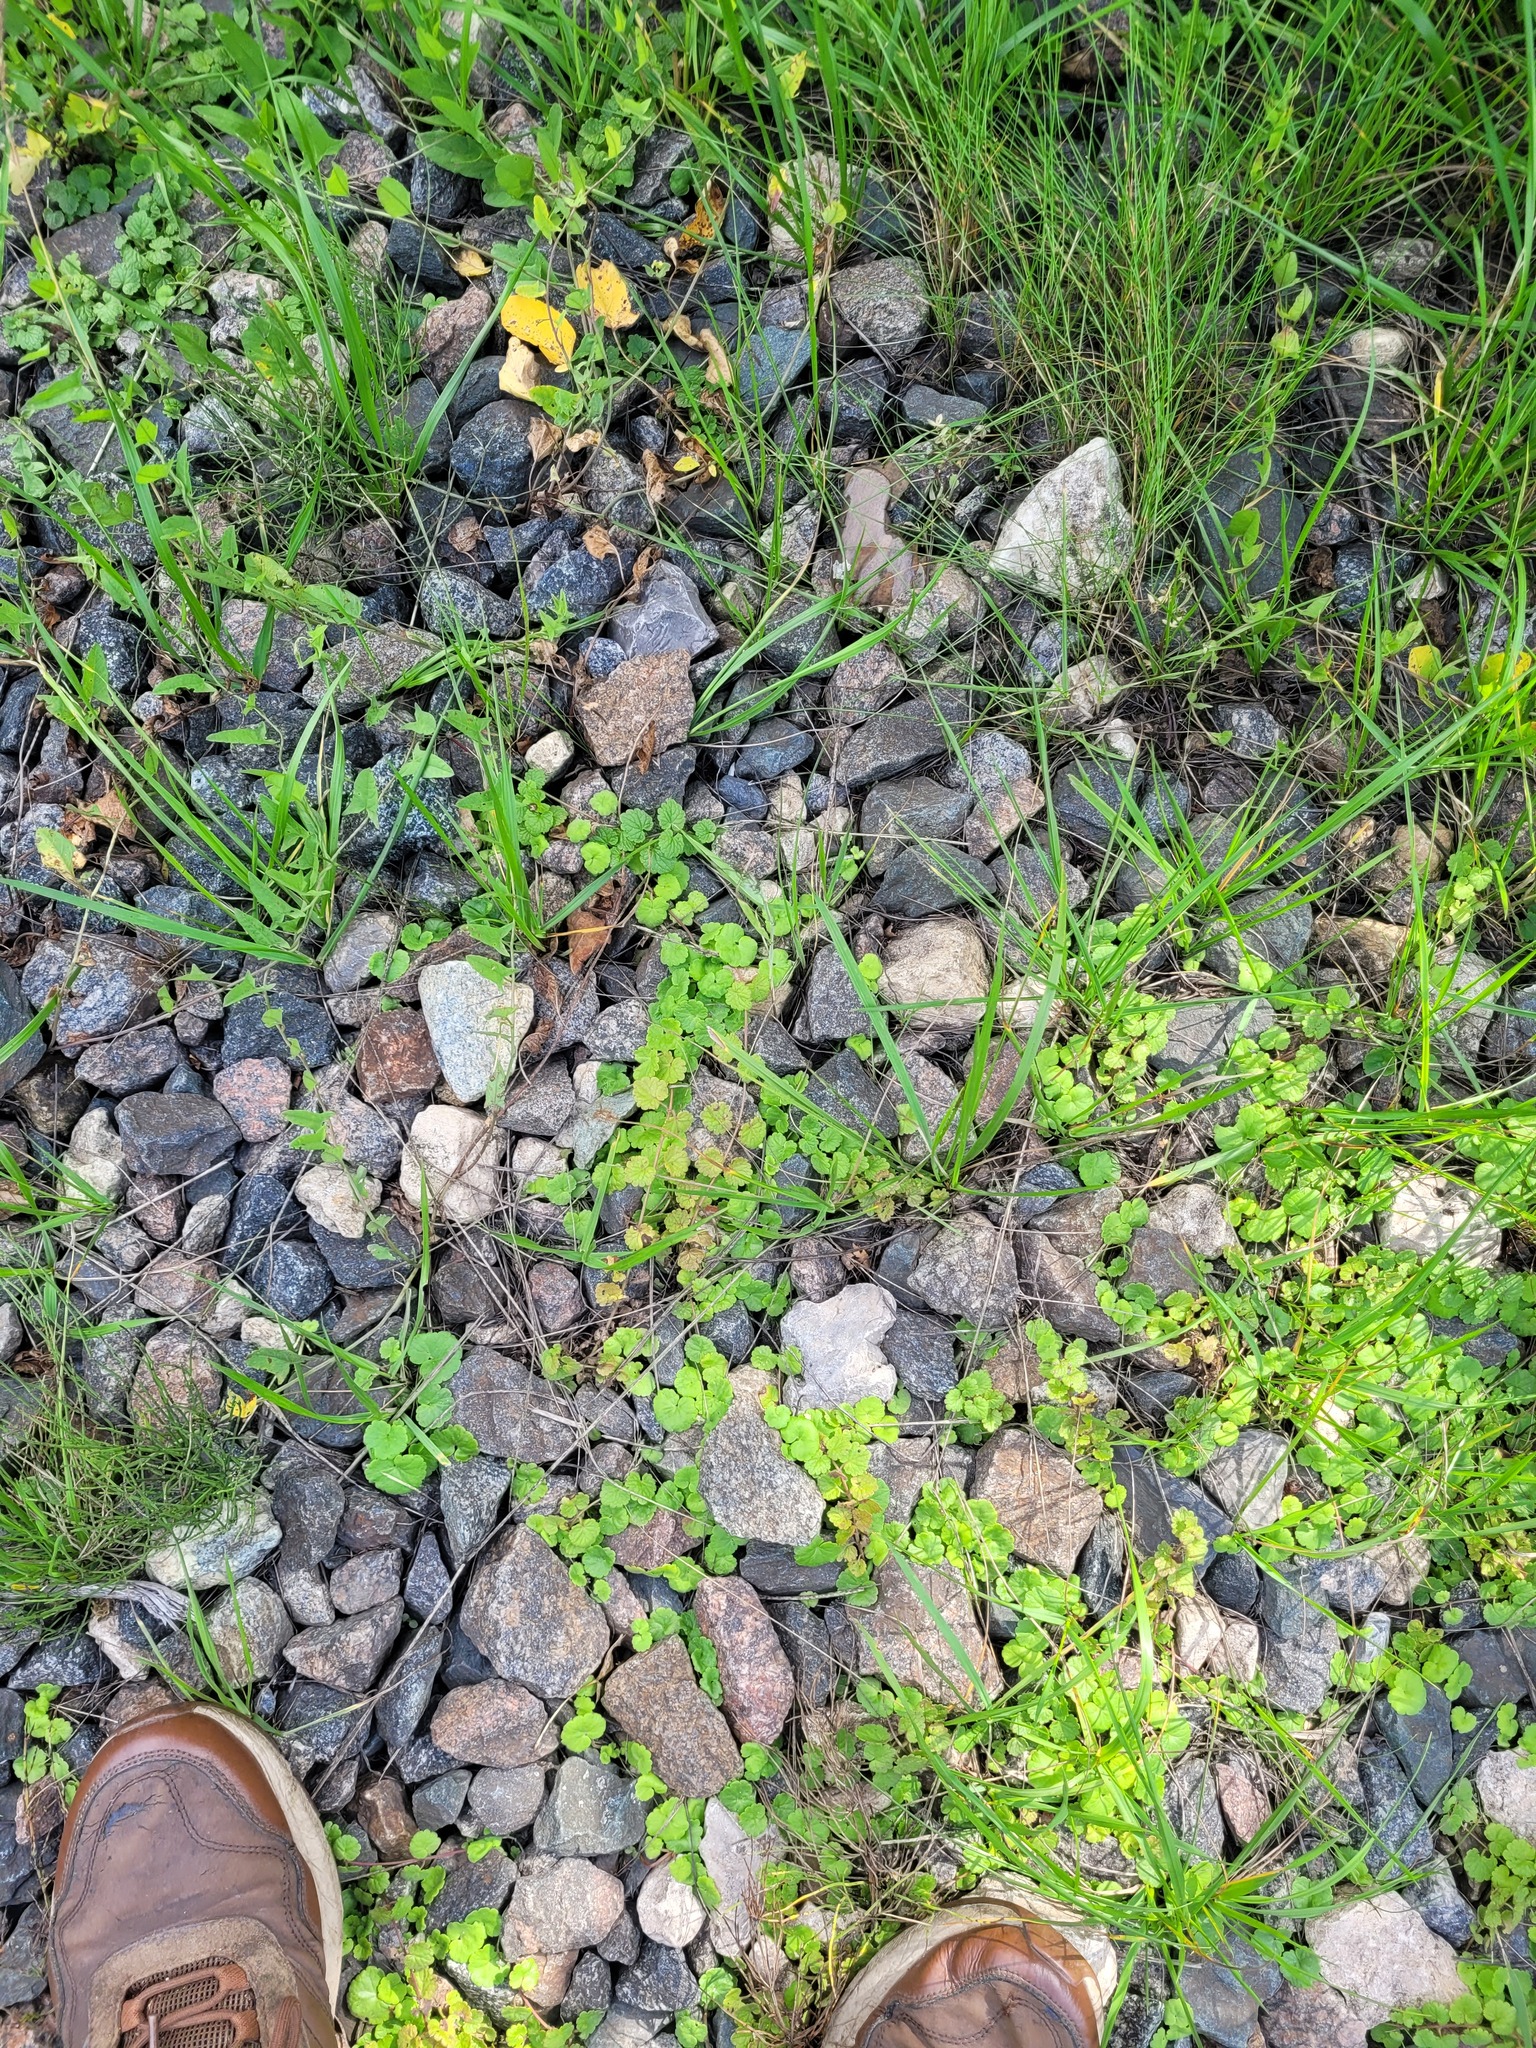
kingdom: Plantae
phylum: Tracheophyta
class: Magnoliopsida
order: Lamiales
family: Lamiaceae
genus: Glechoma
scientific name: Glechoma hederacea
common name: Ground ivy
